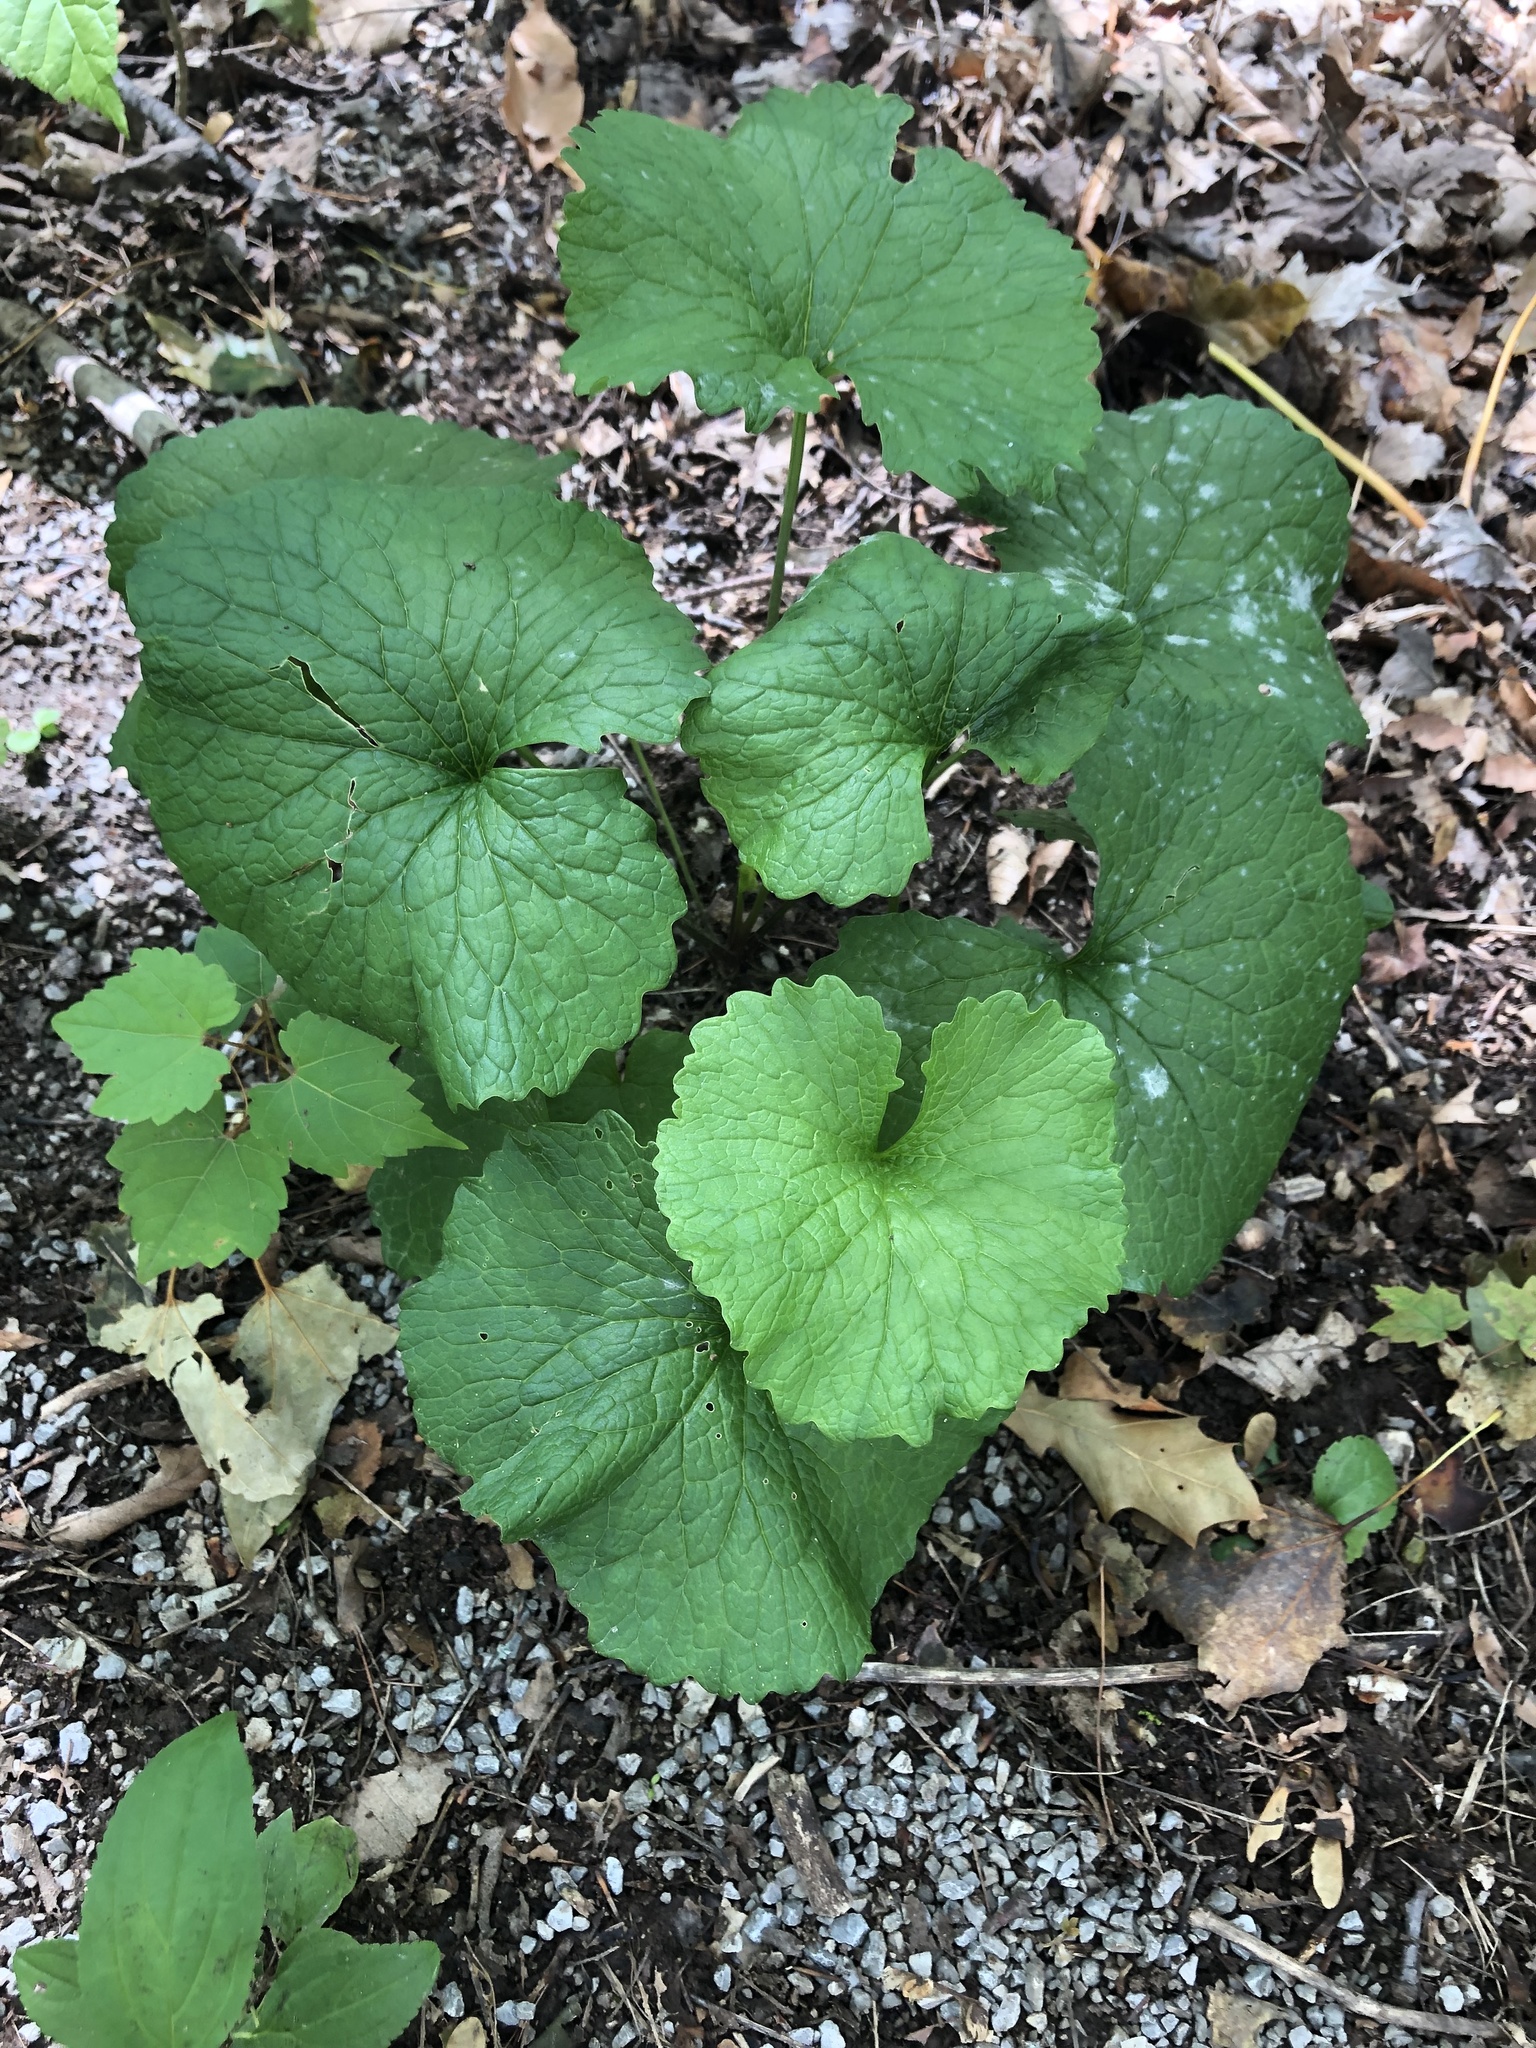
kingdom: Plantae
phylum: Tracheophyta
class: Magnoliopsida
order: Brassicales
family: Brassicaceae
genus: Alliaria
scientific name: Alliaria petiolata
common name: Garlic mustard
